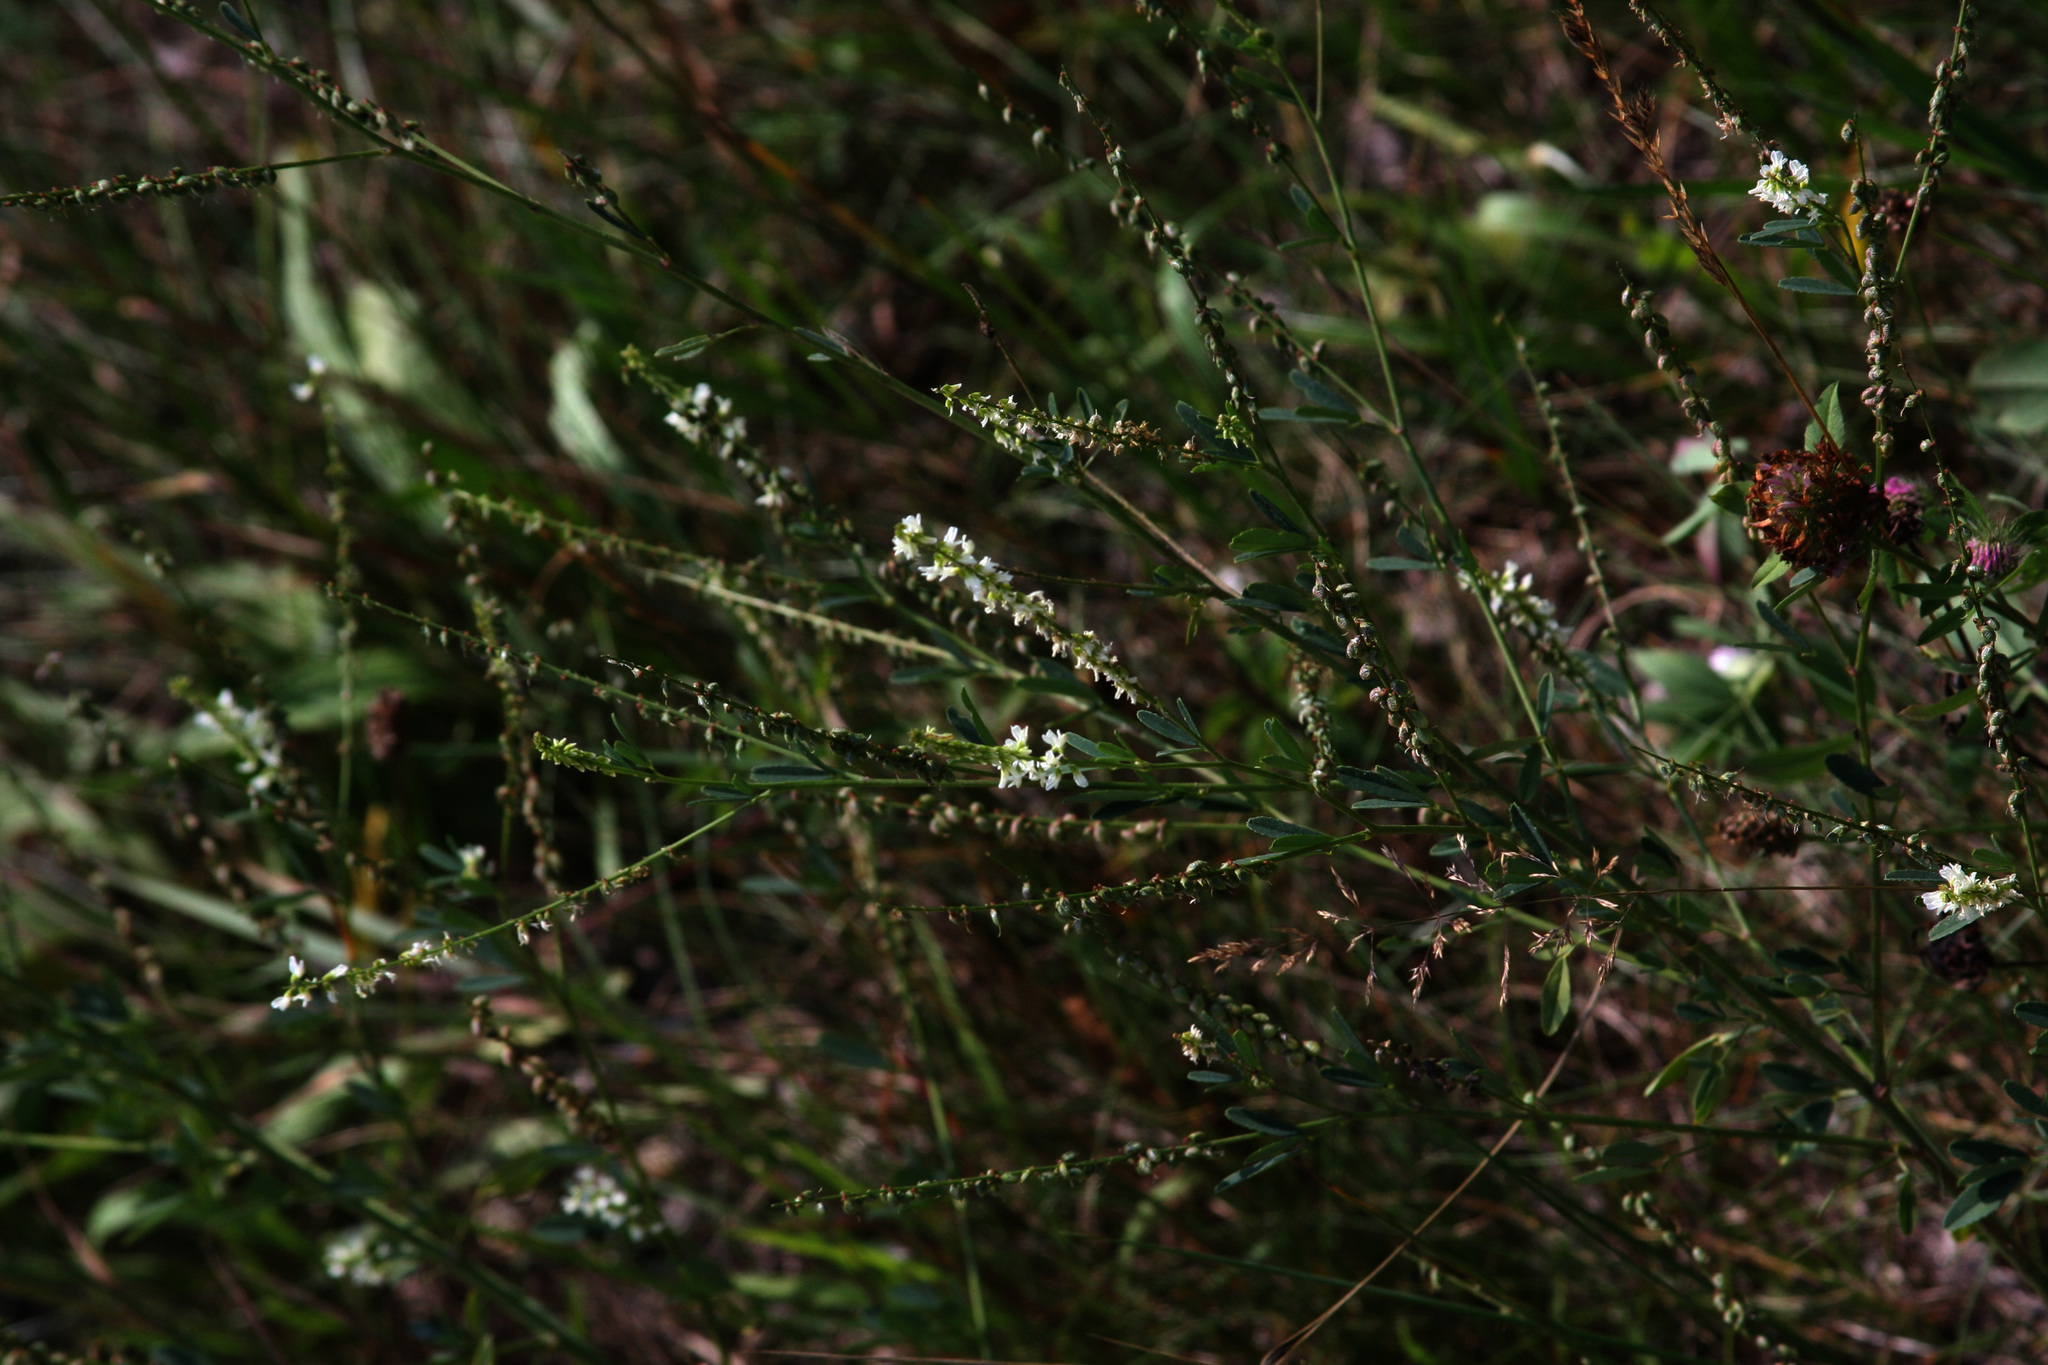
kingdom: Plantae
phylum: Tracheophyta
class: Magnoliopsida
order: Fabales
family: Fabaceae
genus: Melilotus
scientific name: Melilotus albus
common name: White melilot
